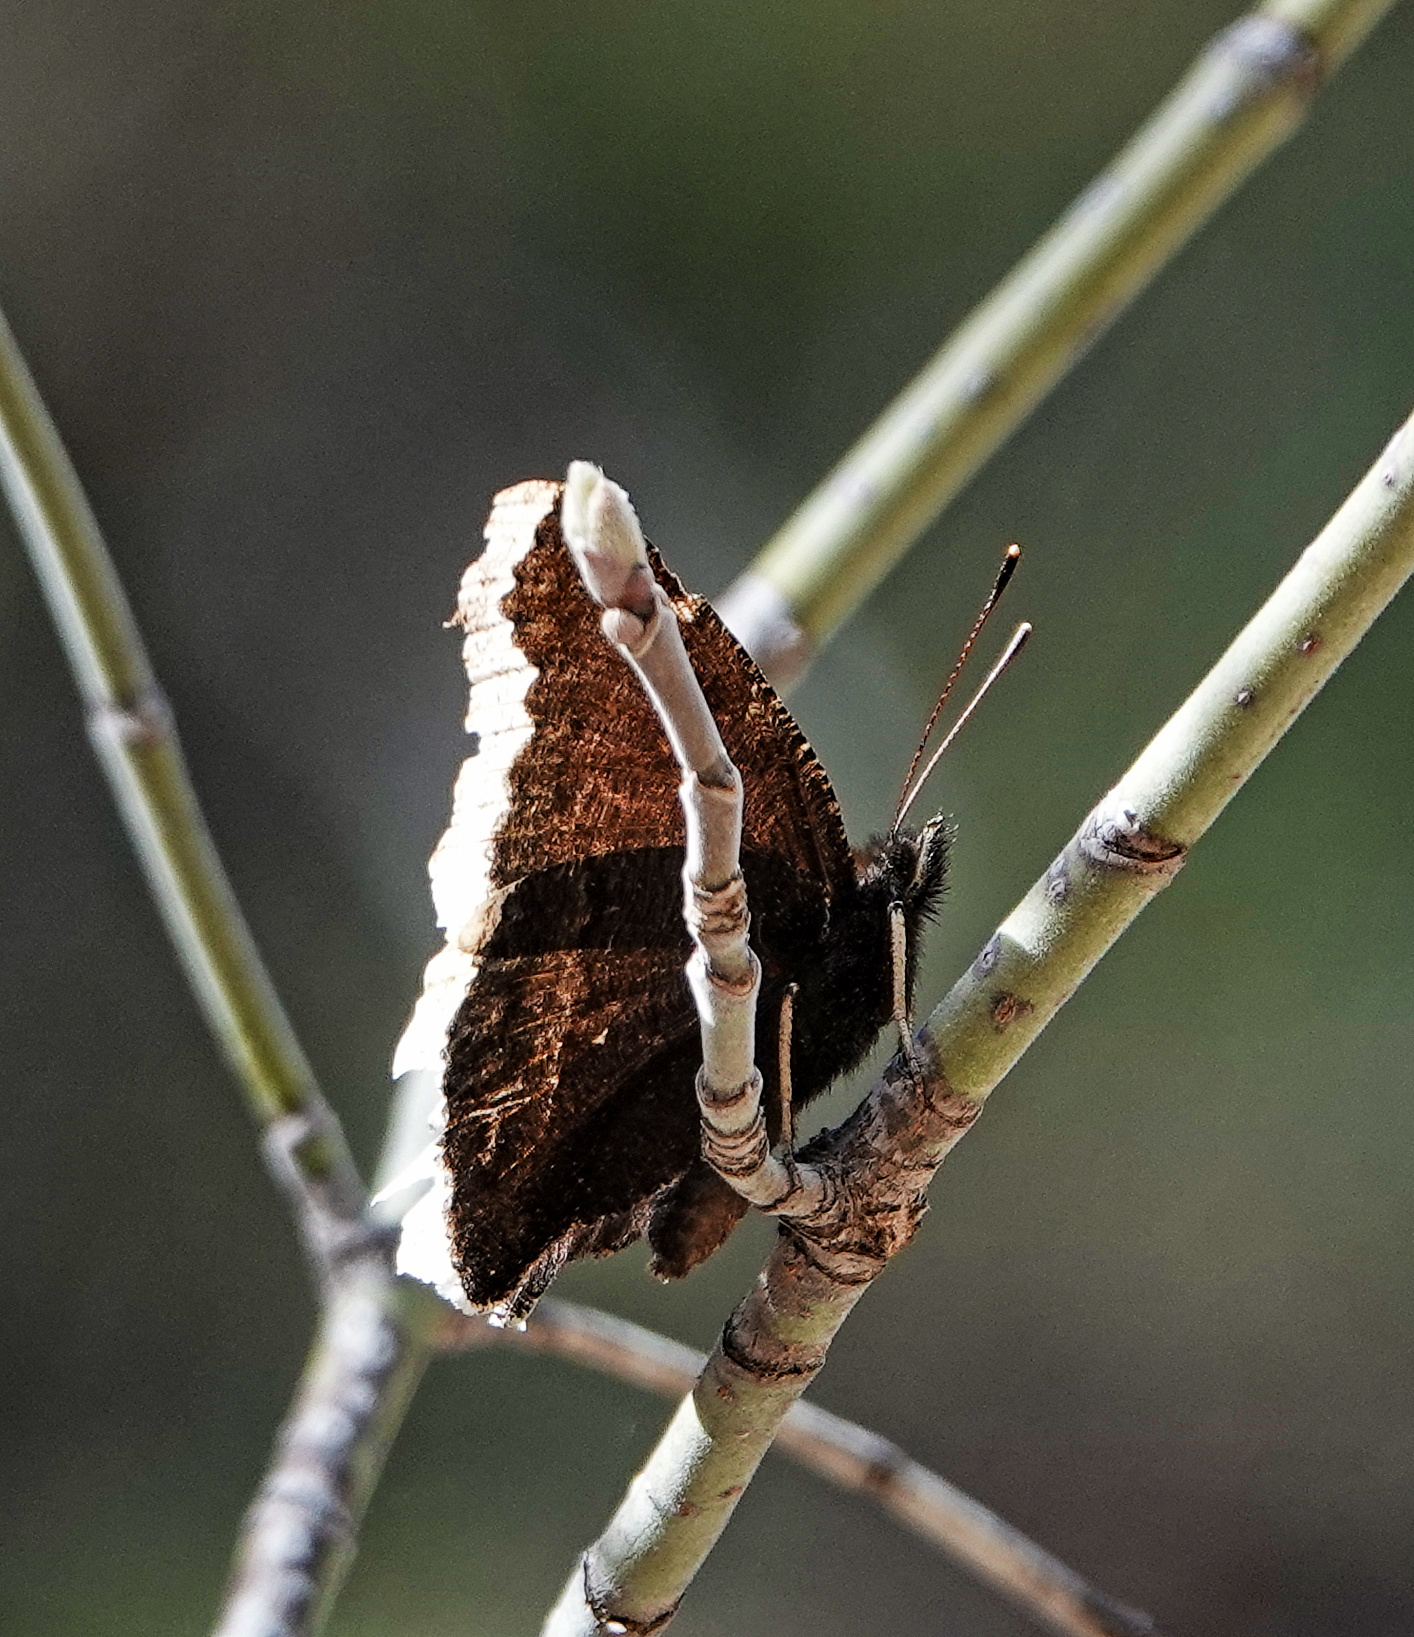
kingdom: Animalia
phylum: Arthropoda
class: Insecta
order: Lepidoptera
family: Nymphalidae
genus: Nymphalis
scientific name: Nymphalis antiopa
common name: Camberwell beauty
